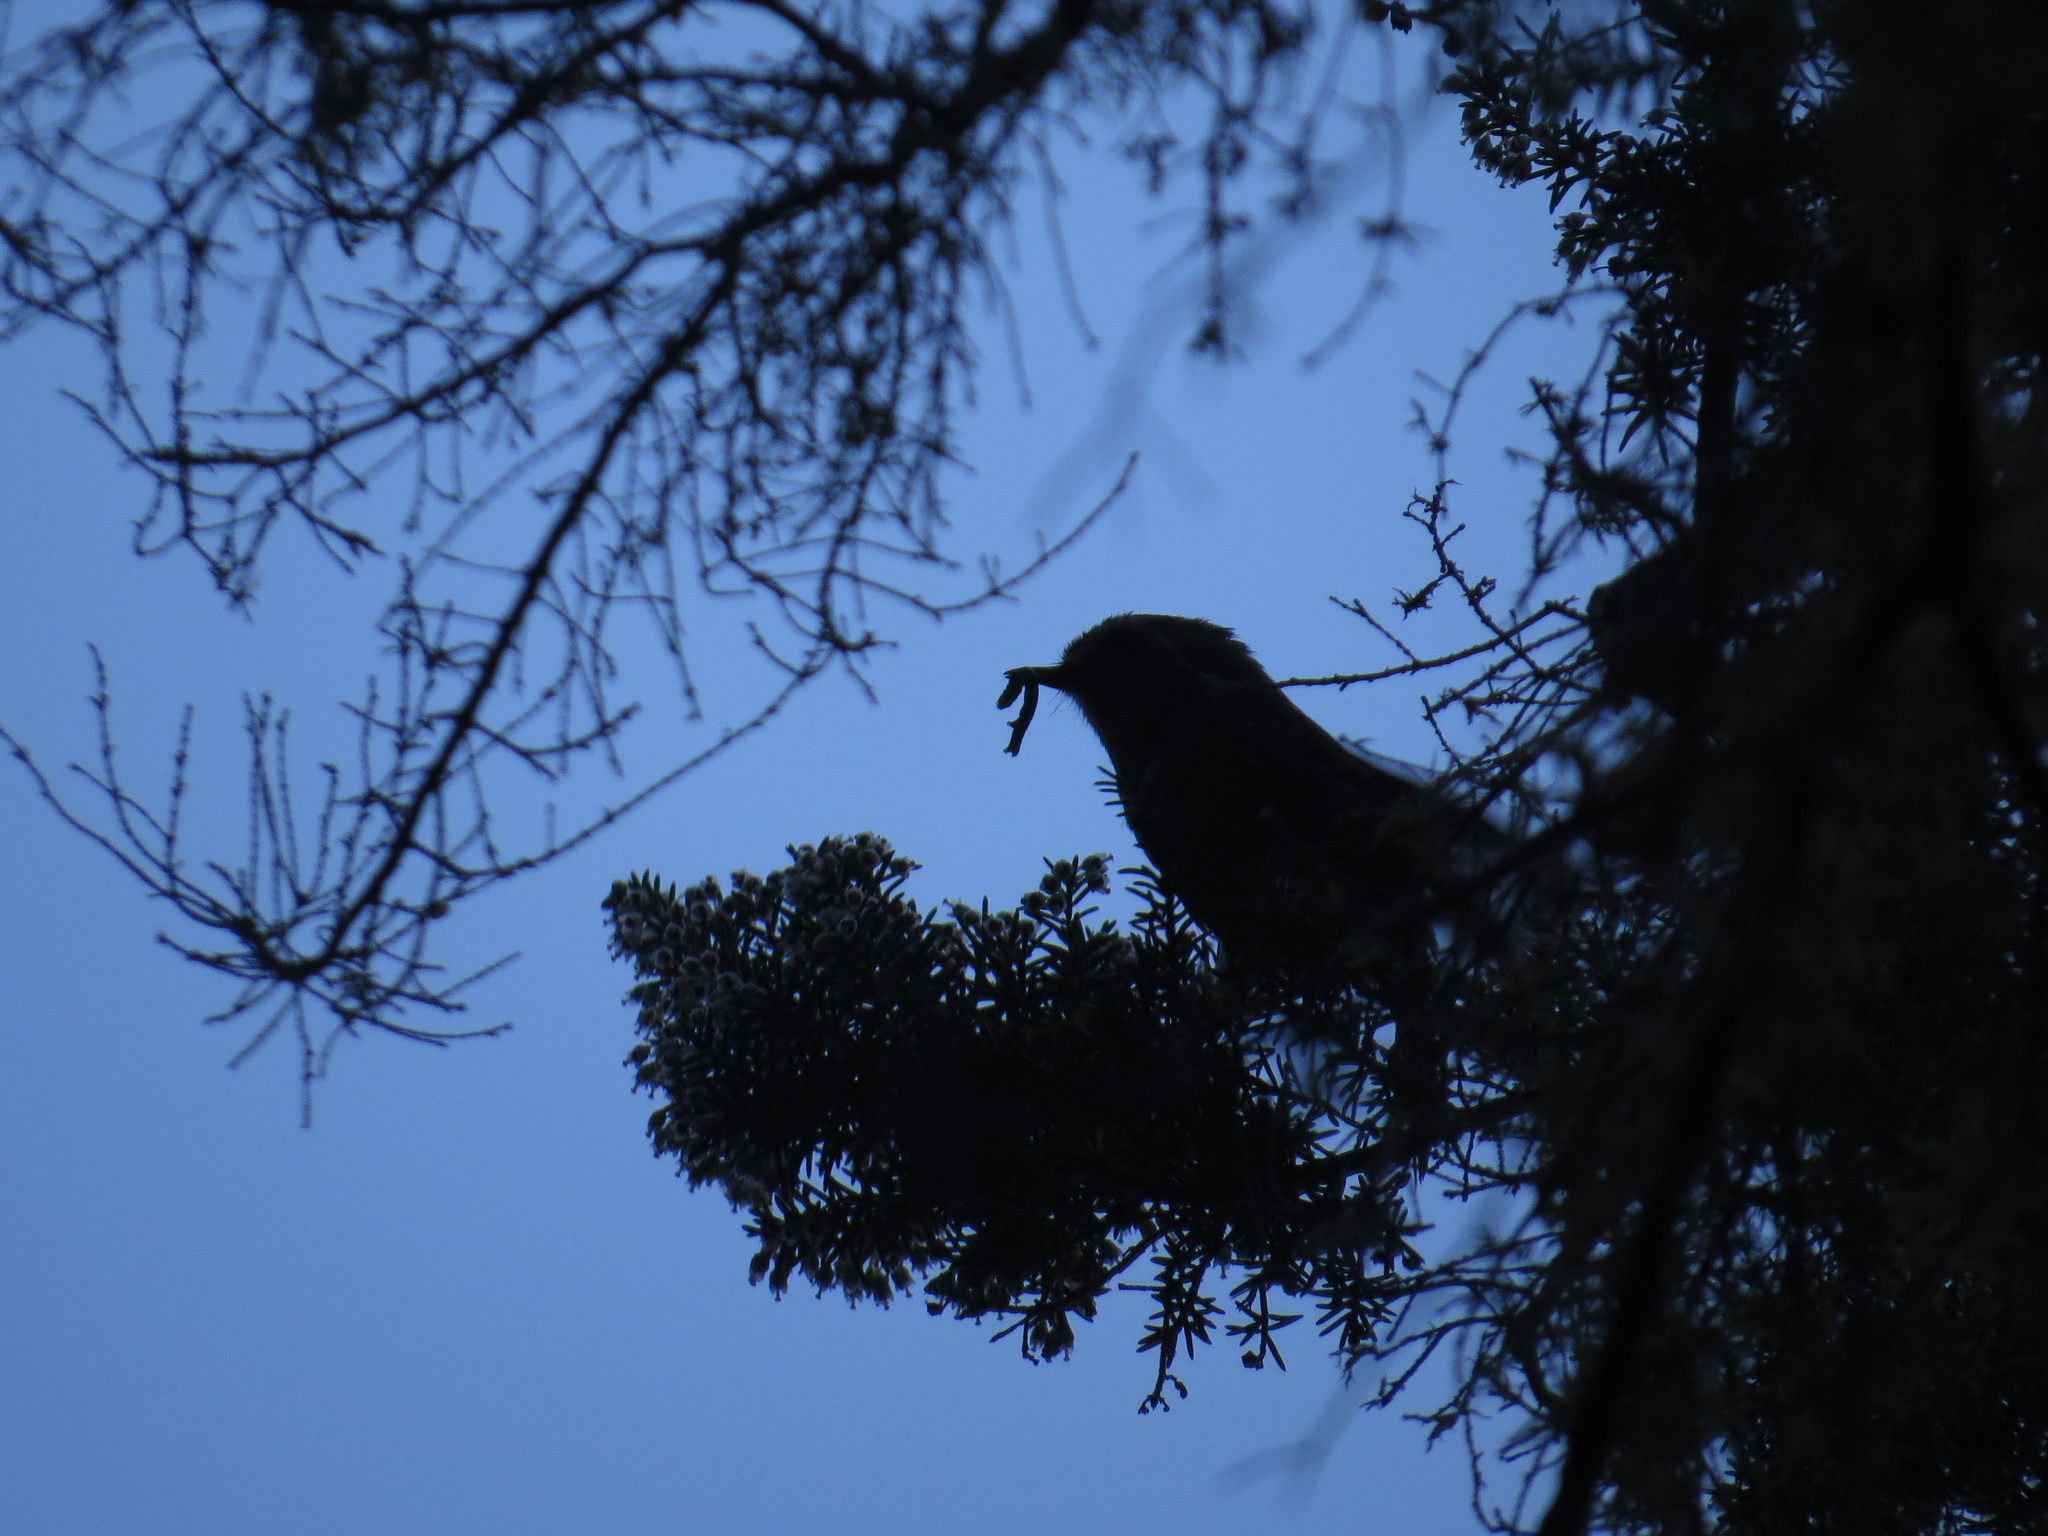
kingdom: Animalia
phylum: Chordata
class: Aves
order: Passeriformes
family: Regulidae
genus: Regulus
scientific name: Regulus regulus
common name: Goldcrest
